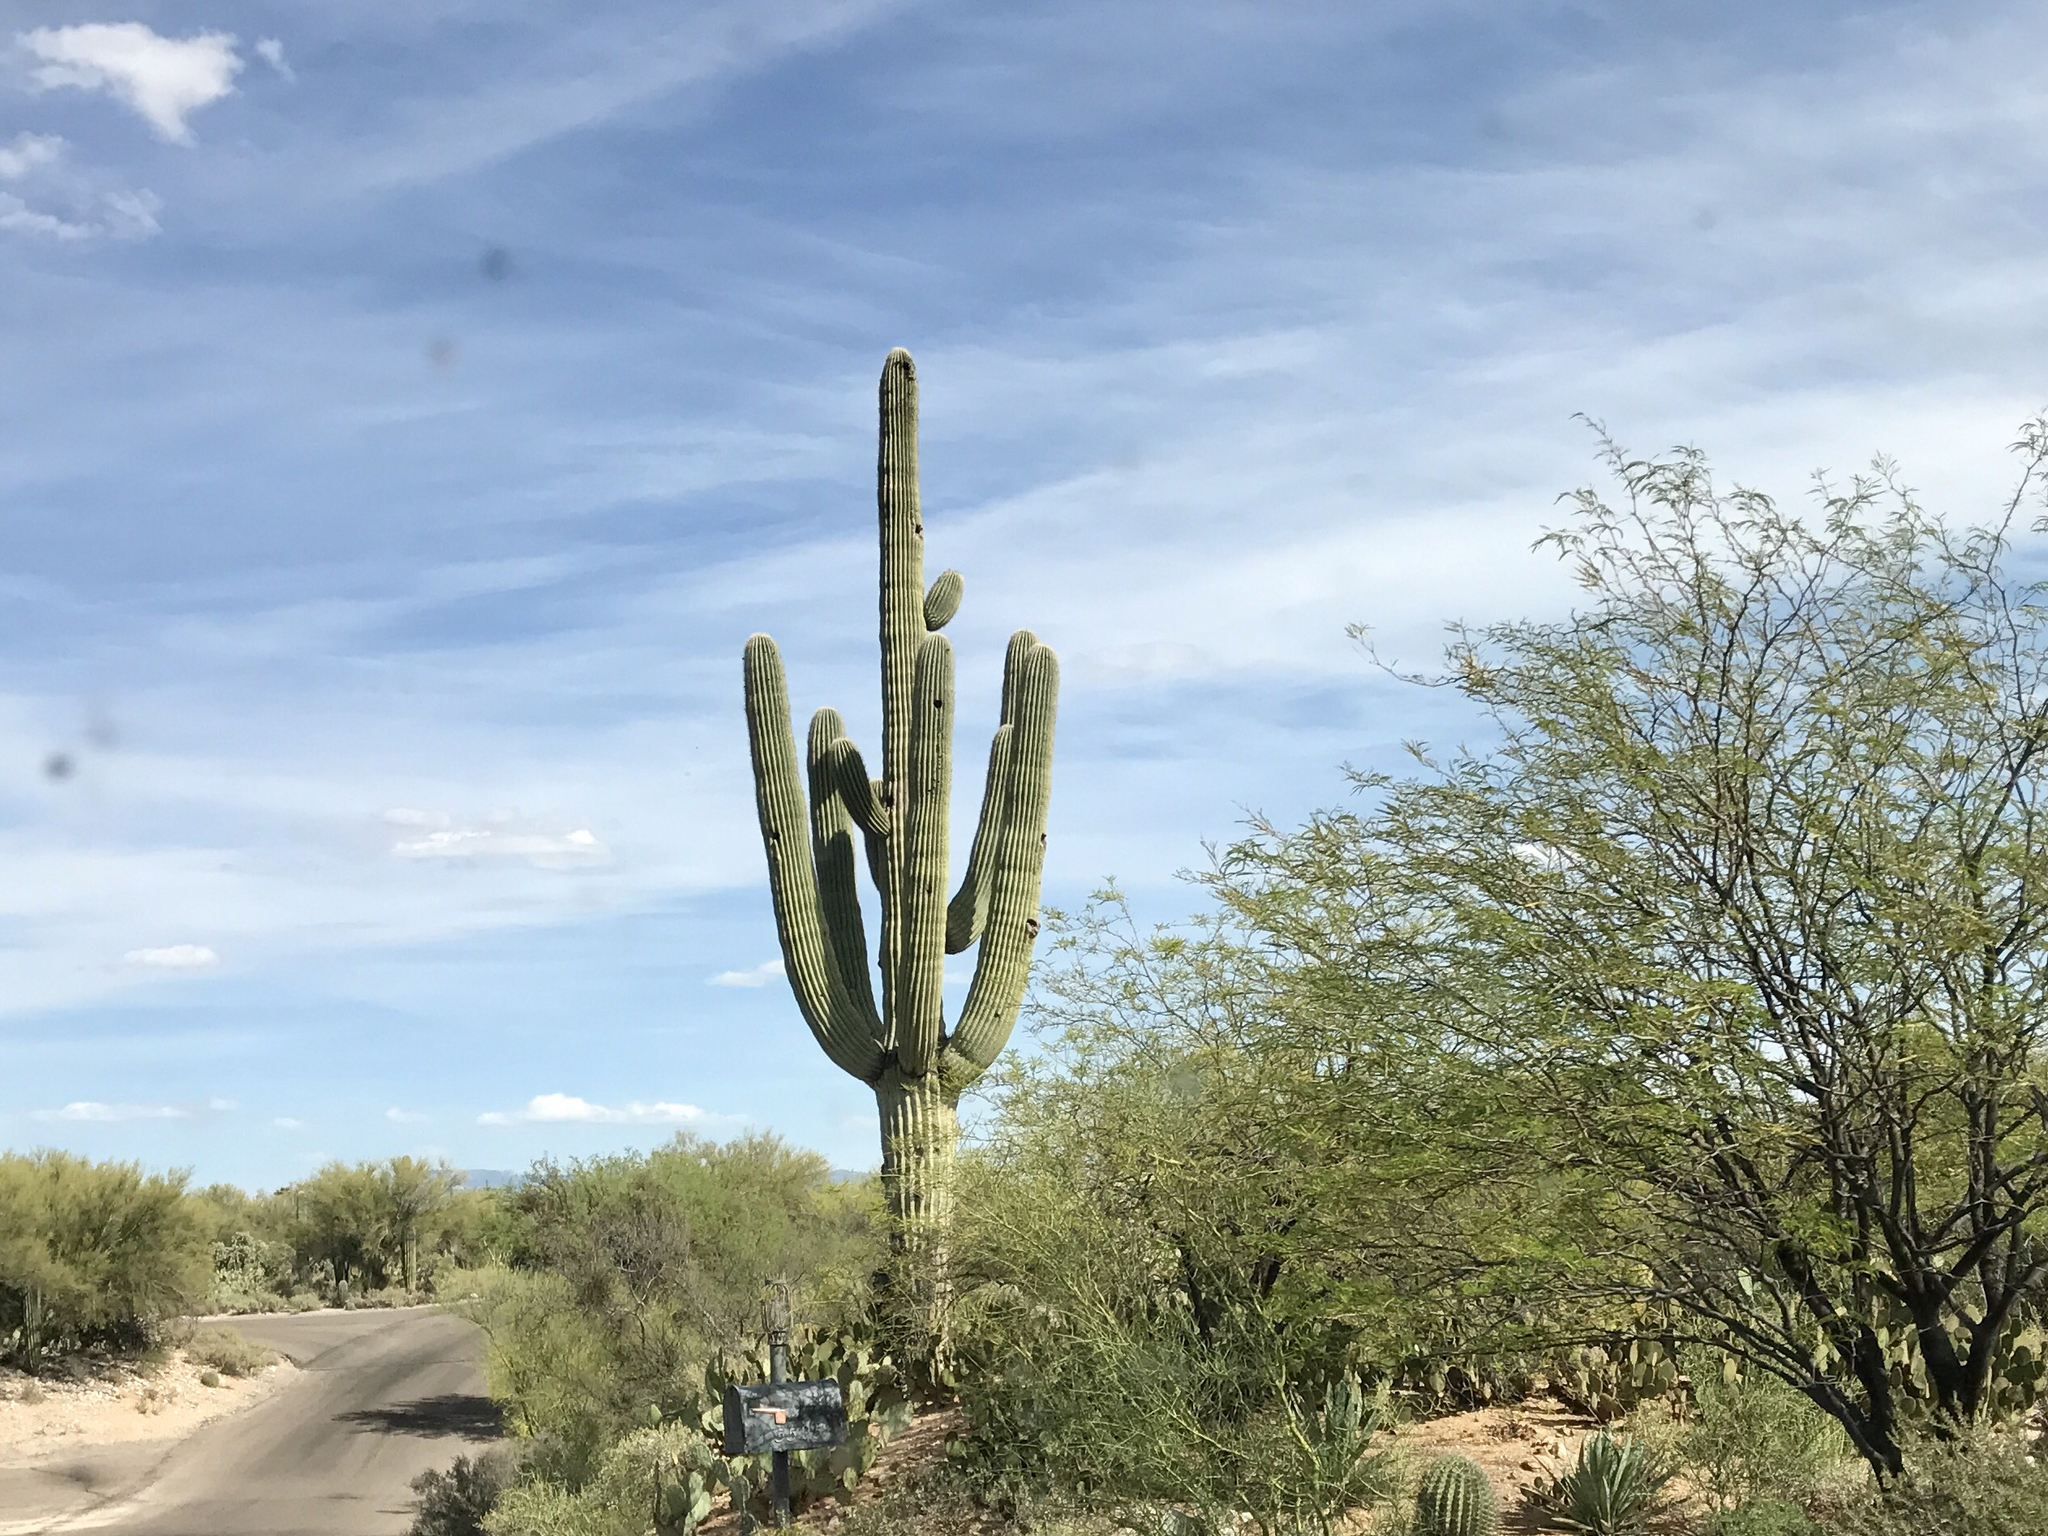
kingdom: Plantae
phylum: Tracheophyta
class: Magnoliopsida
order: Caryophyllales
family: Cactaceae
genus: Carnegiea
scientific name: Carnegiea gigantea
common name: Saguaro
